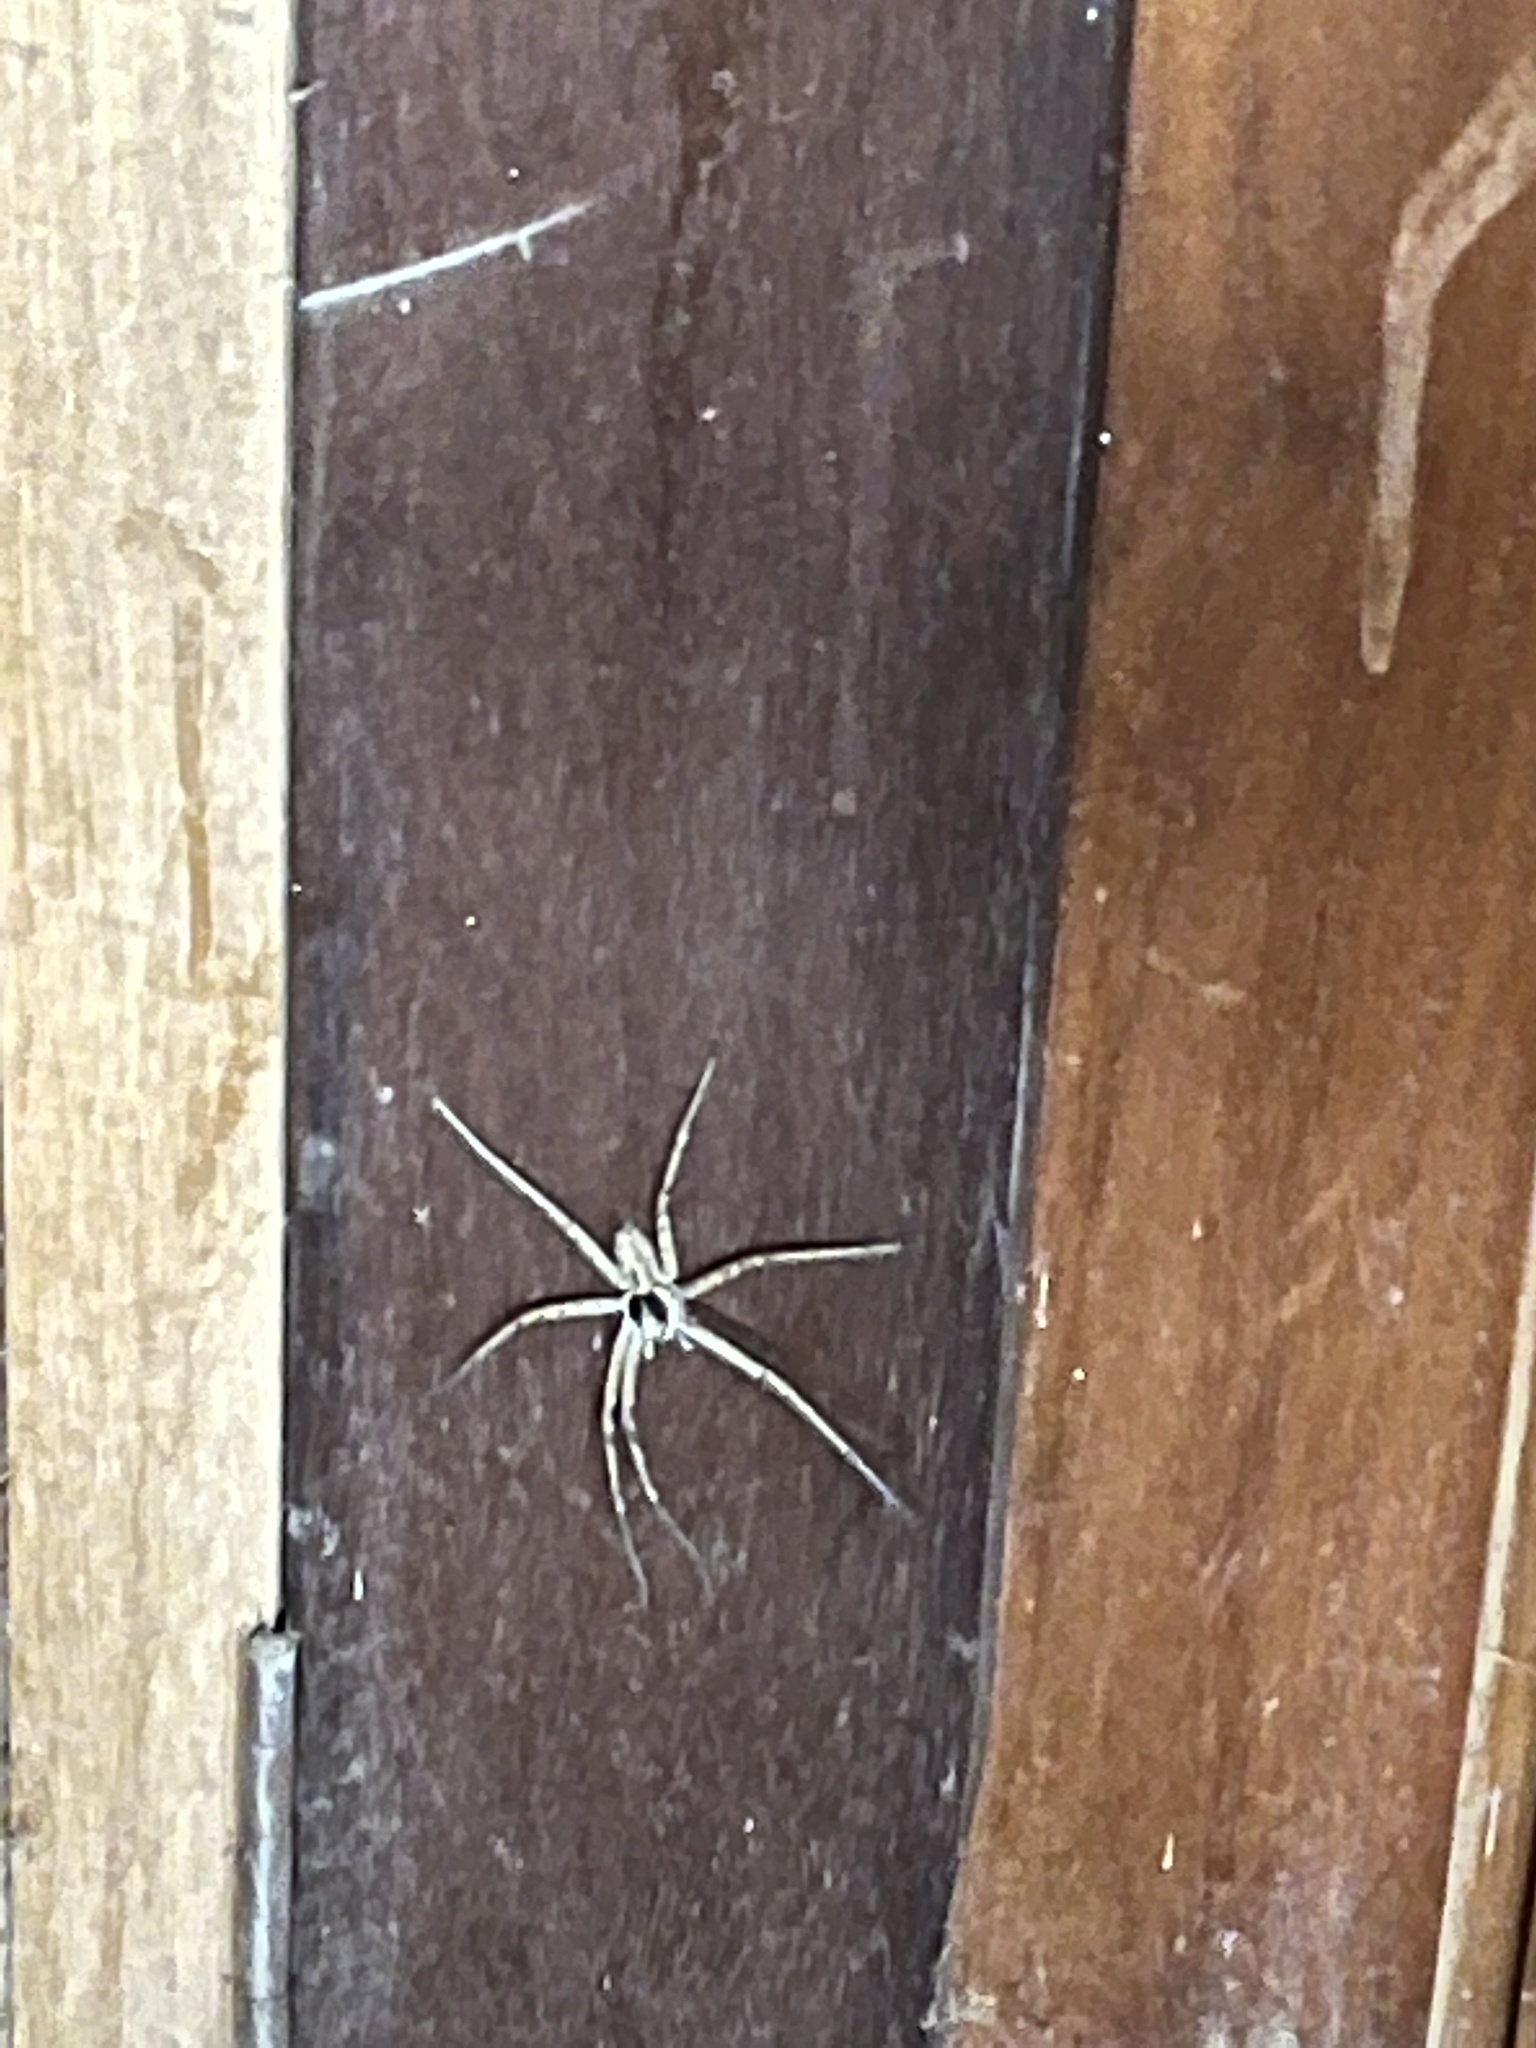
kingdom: Animalia
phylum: Arthropoda
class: Arachnida
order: Araneae
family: Sparassidae
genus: Heteropoda
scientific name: Heteropoda venatoria
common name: Huntsman spider
